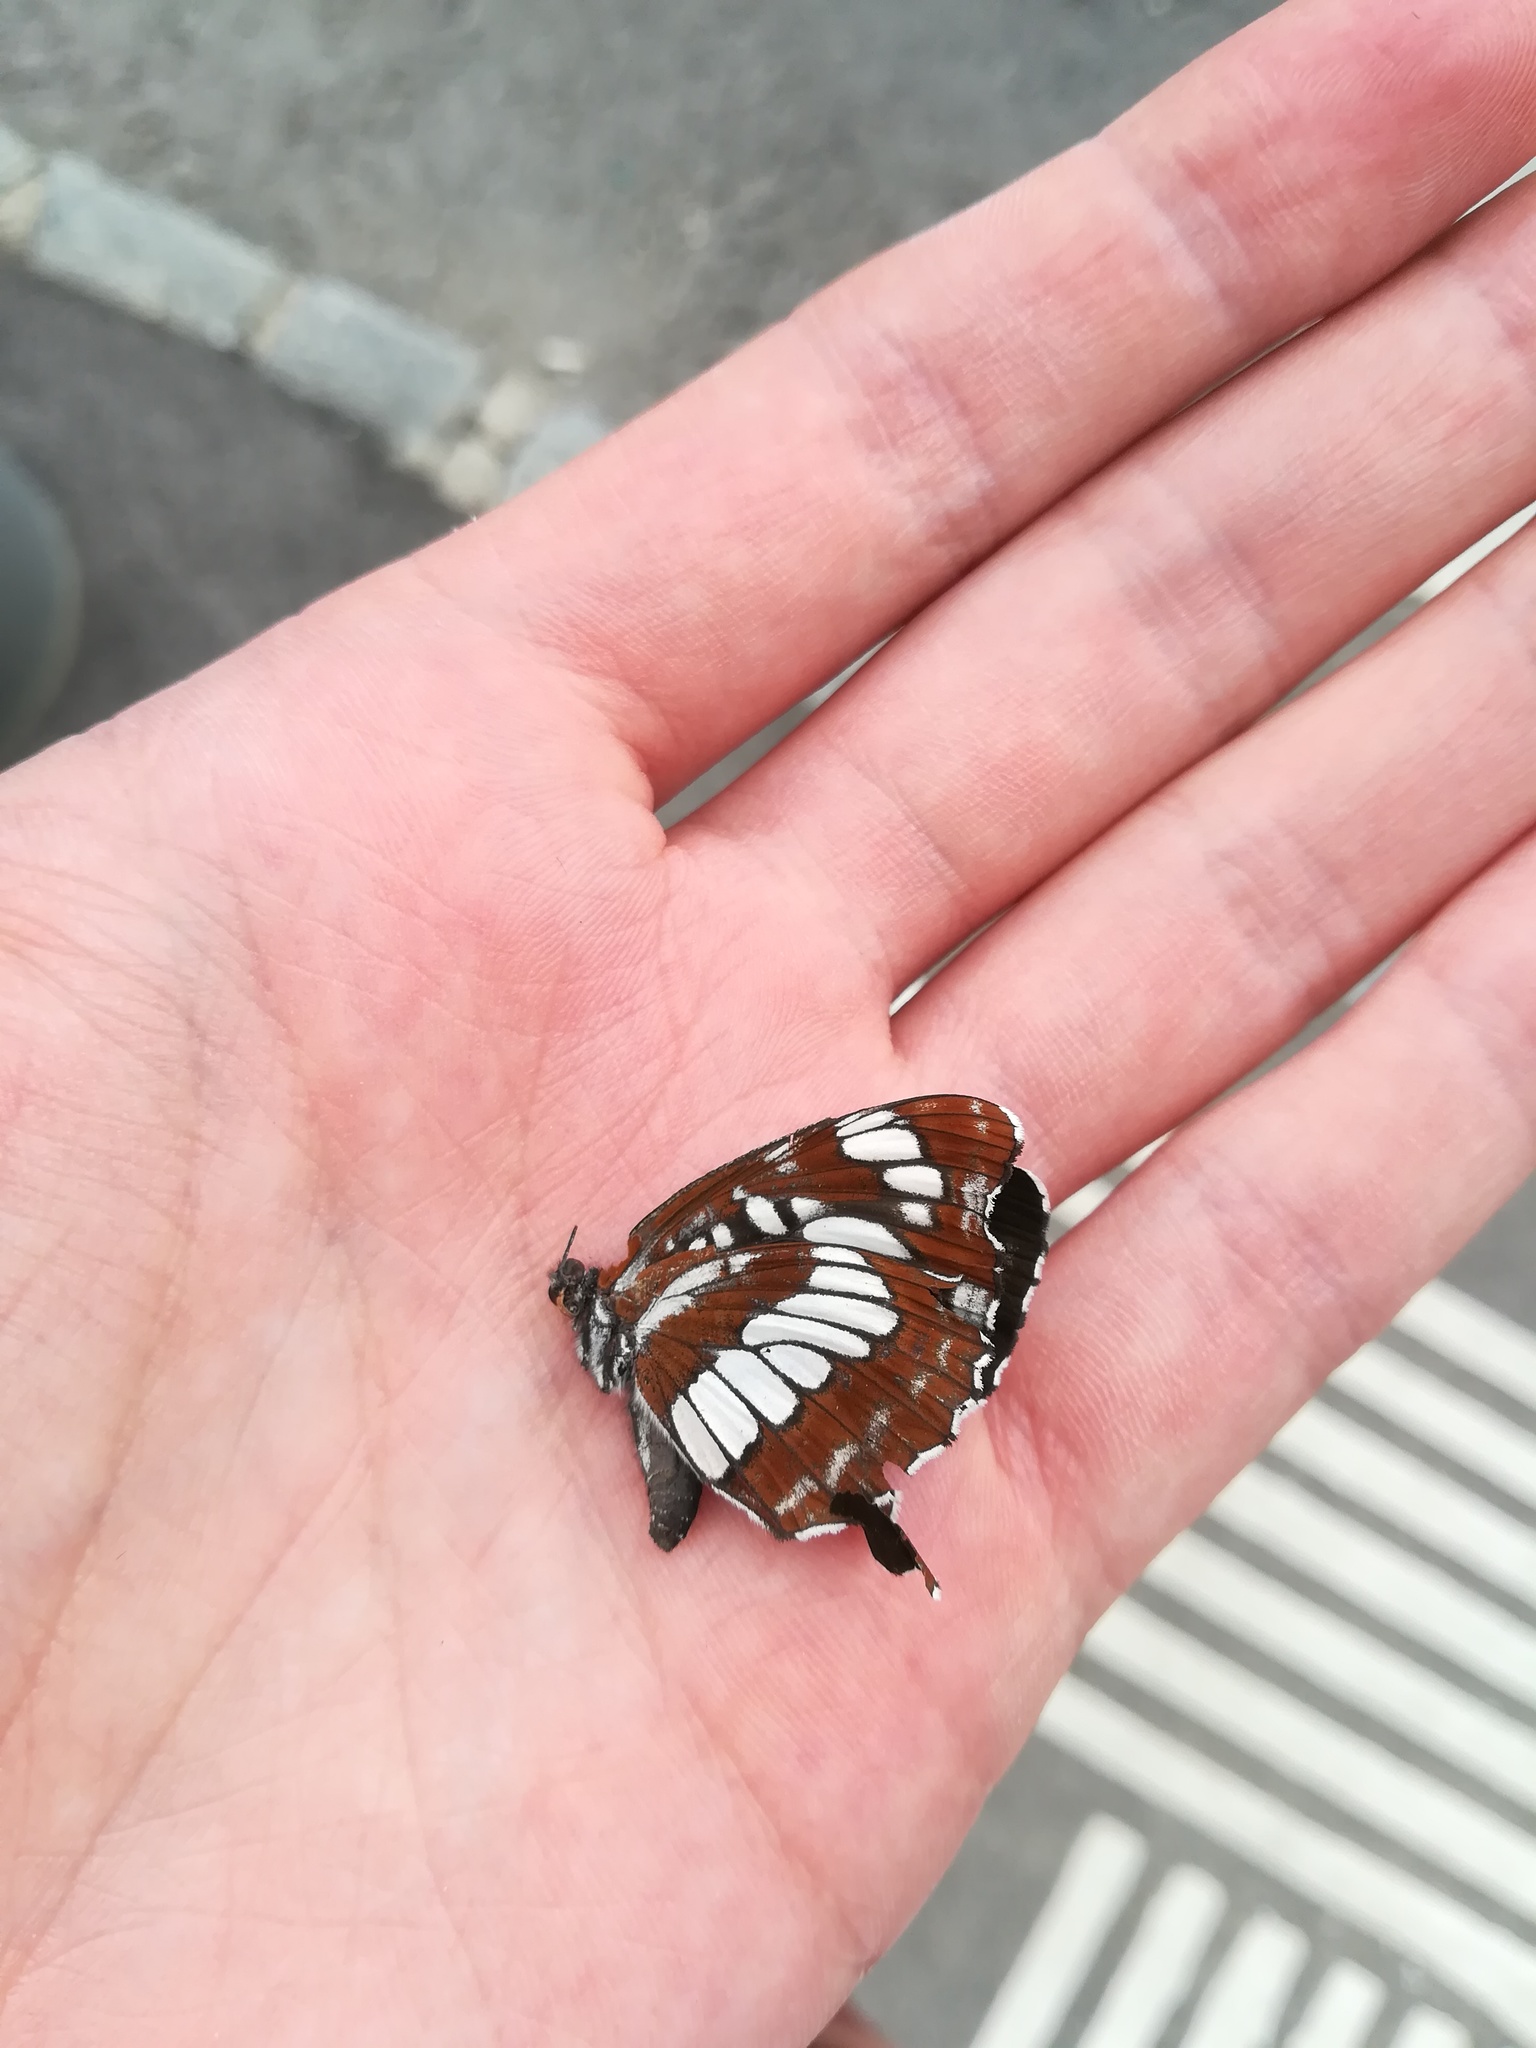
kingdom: Animalia
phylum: Arthropoda
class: Insecta
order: Lepidoptera
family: Nymphalidae
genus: Neptis
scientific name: Neptis rivularis
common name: Hungarian glider
